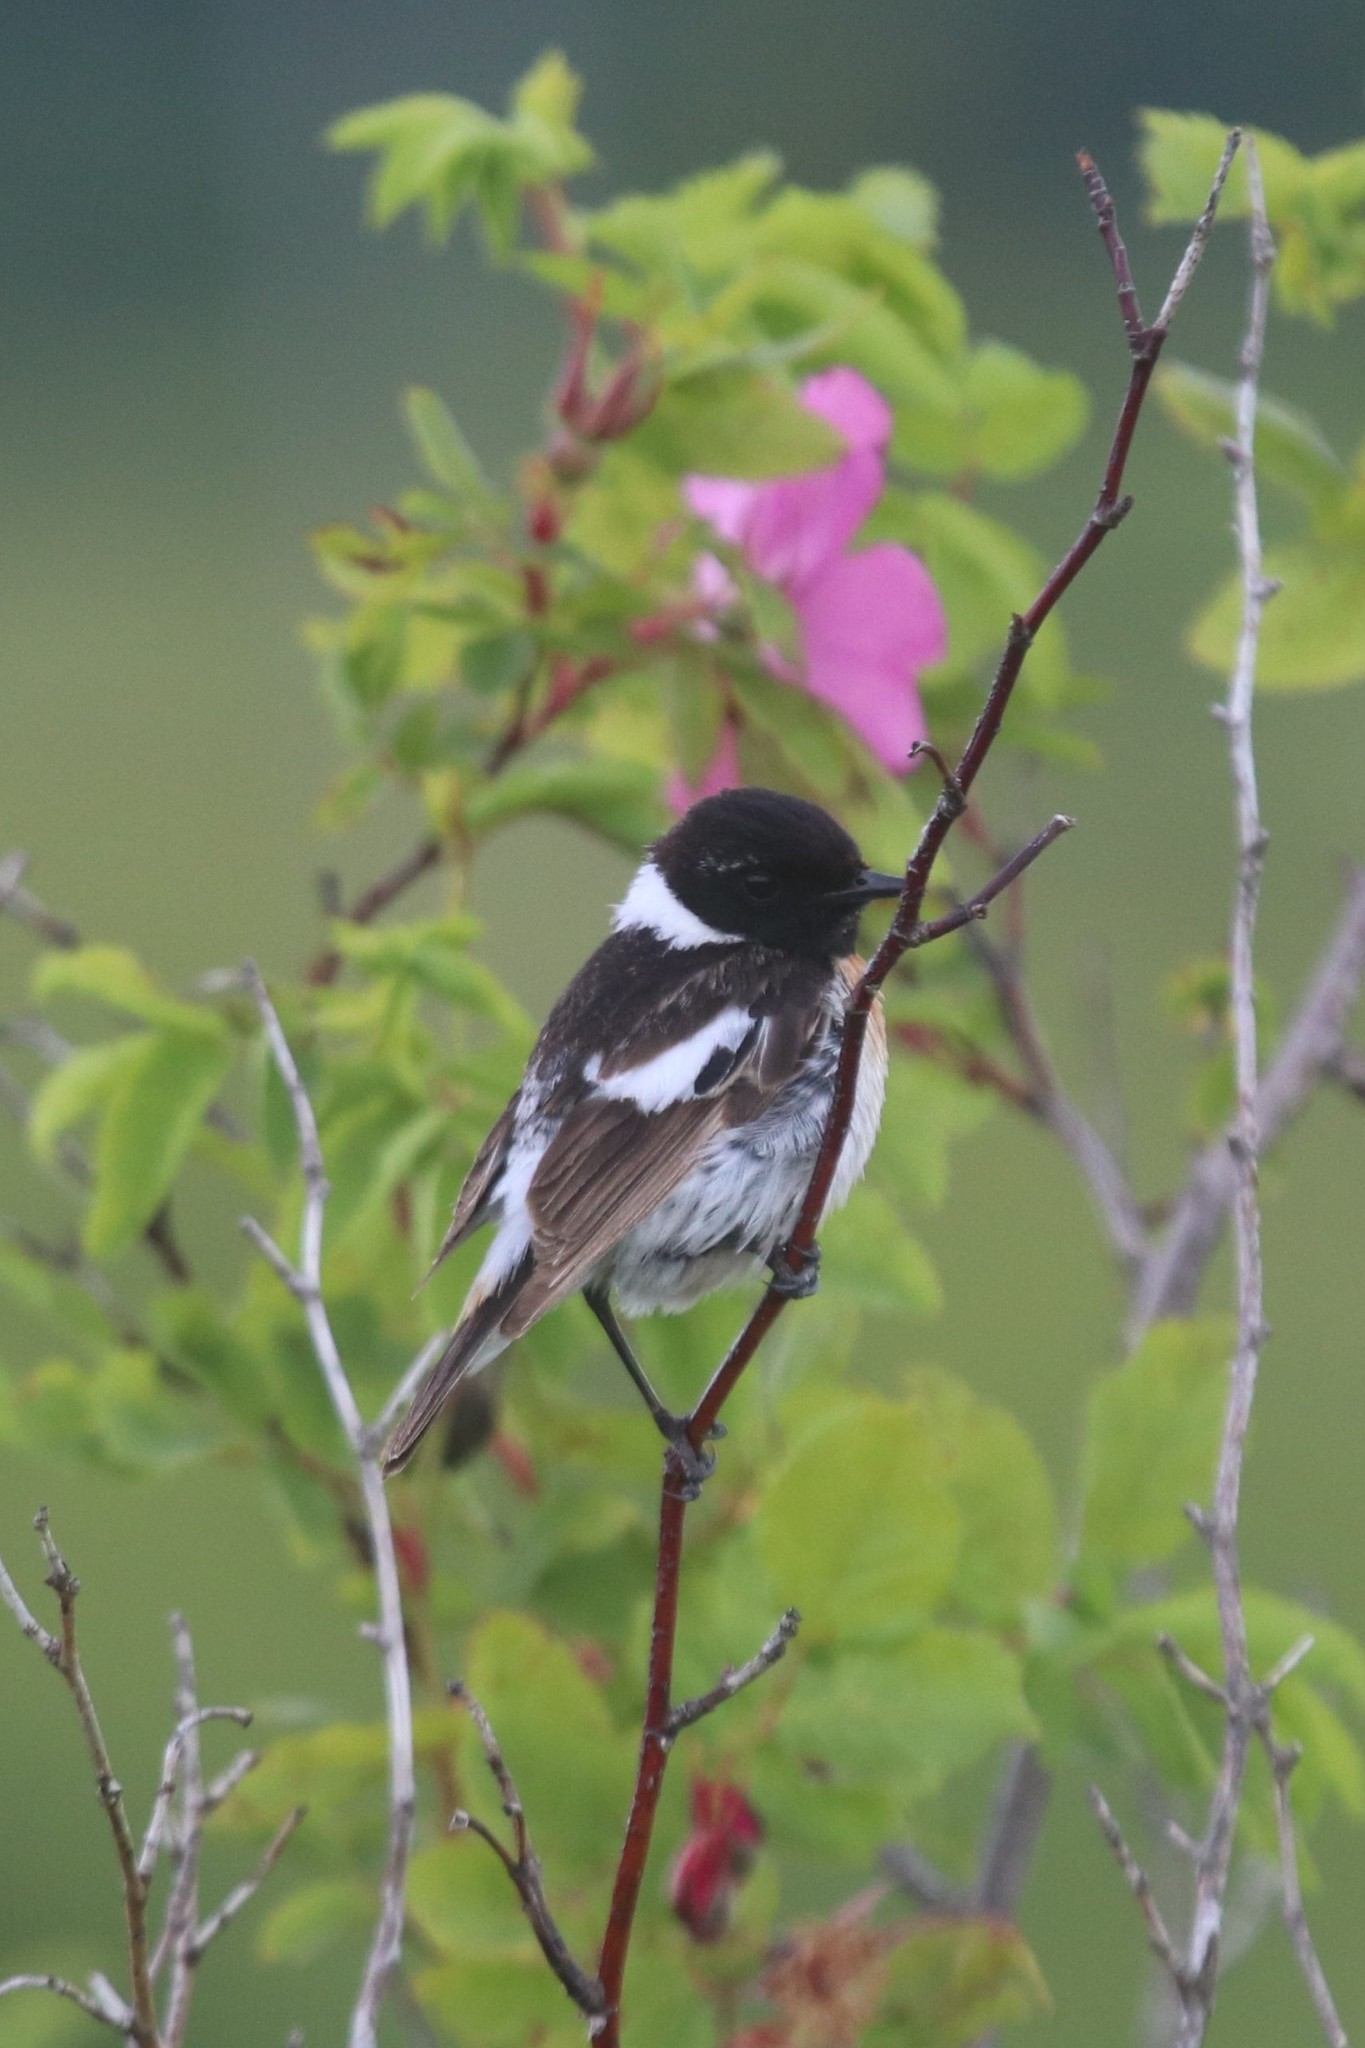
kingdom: Animalia
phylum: Chordata
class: Aves
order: Passeriformes
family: Muscicapidae
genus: Saxicola
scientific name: Saxicola maurus
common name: Siberian stonechat
